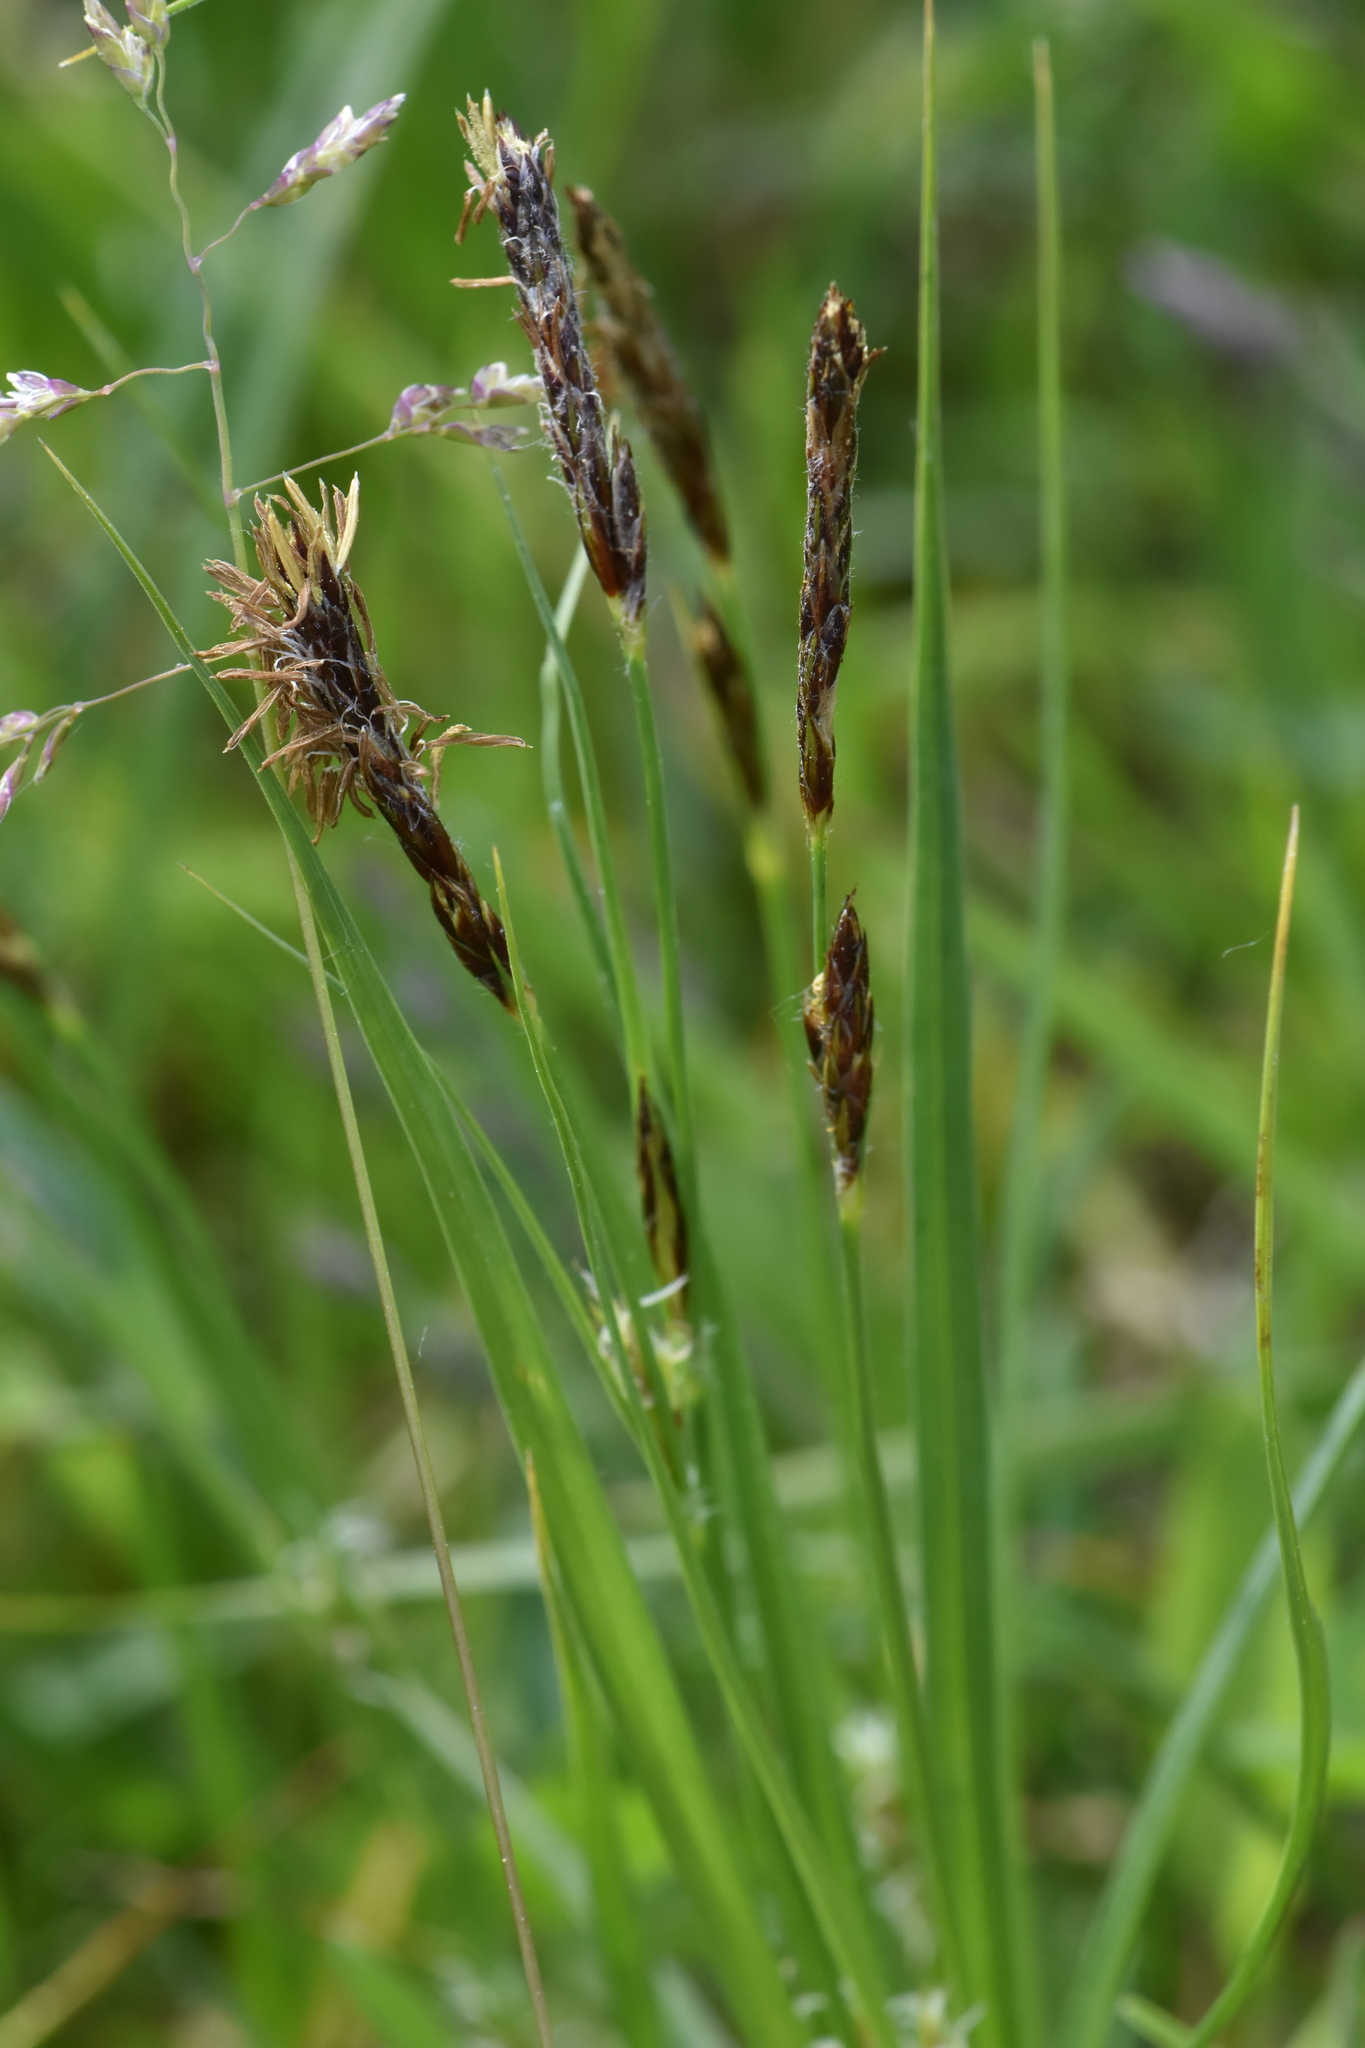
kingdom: Plantae
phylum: Tracheophyta
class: Liliopsida
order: Poales
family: Cyperaceae
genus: Carex
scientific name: Carex hirta
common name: Hairy sedge
